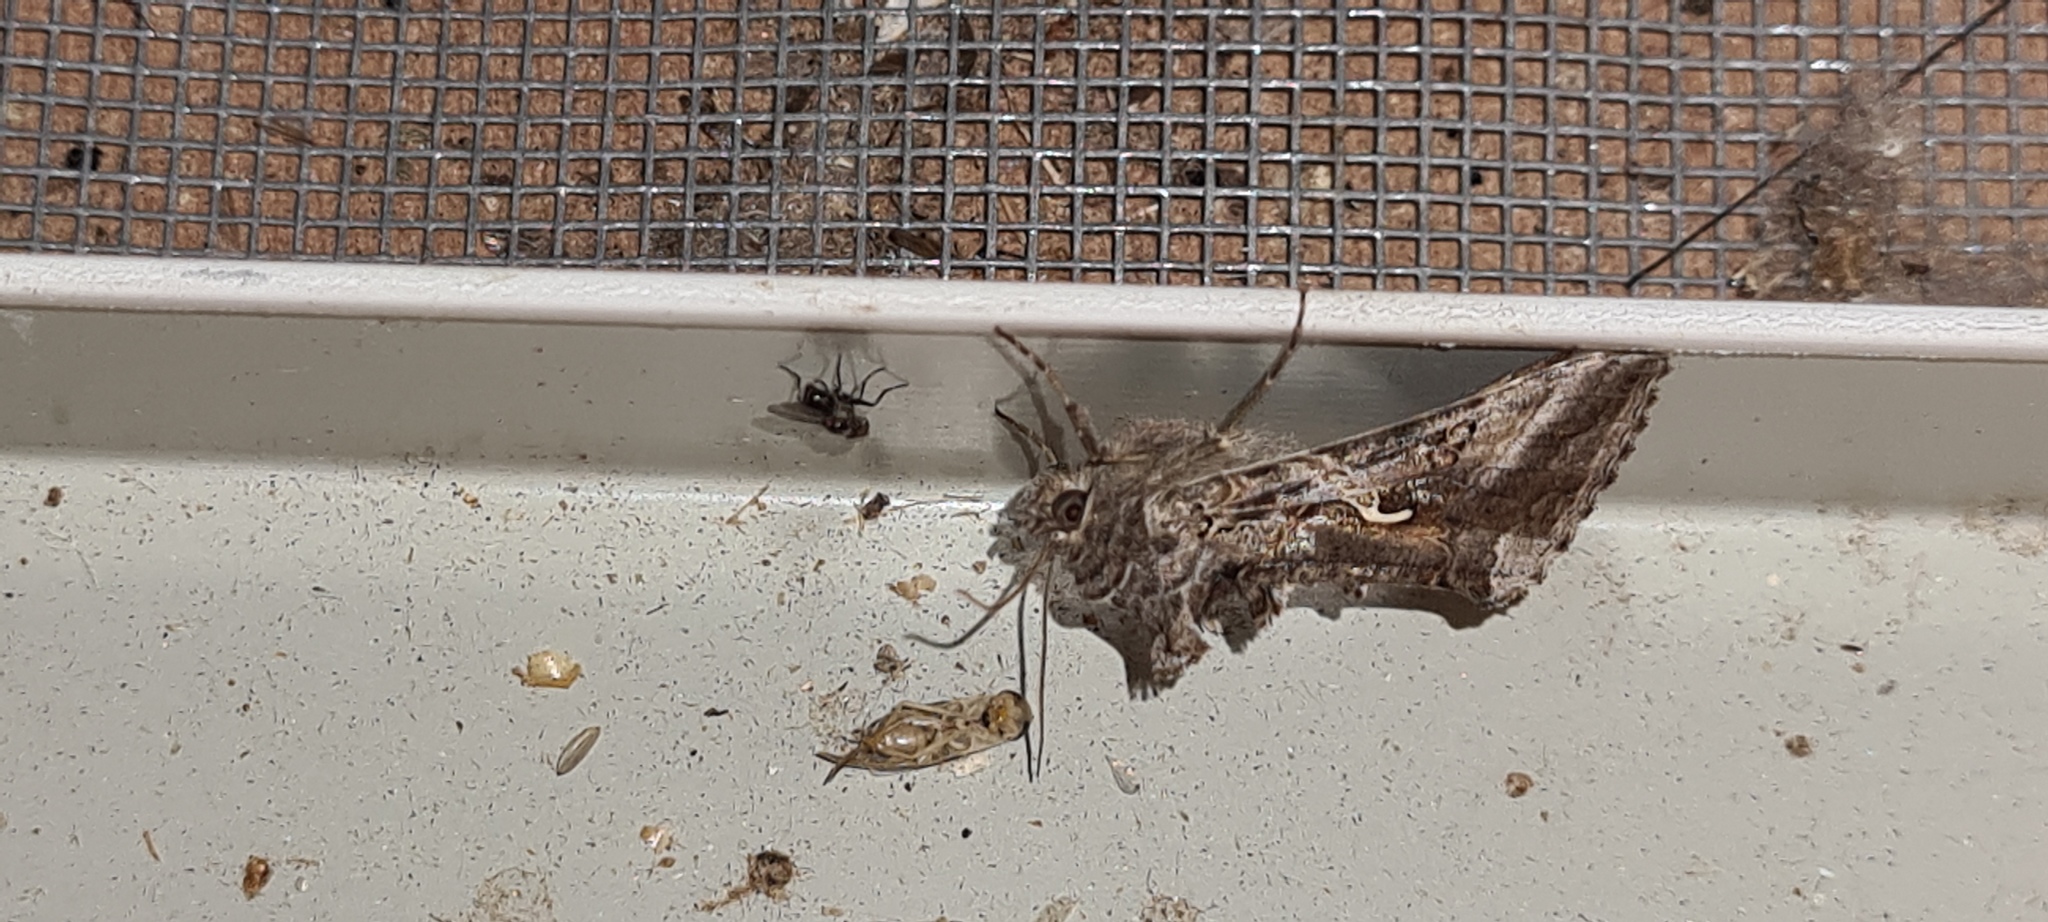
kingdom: Animalia
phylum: Arthropoda
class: Insecta
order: Lepidoptera
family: Noctuidae
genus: Autographa
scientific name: Autographa gamma
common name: Silver y
